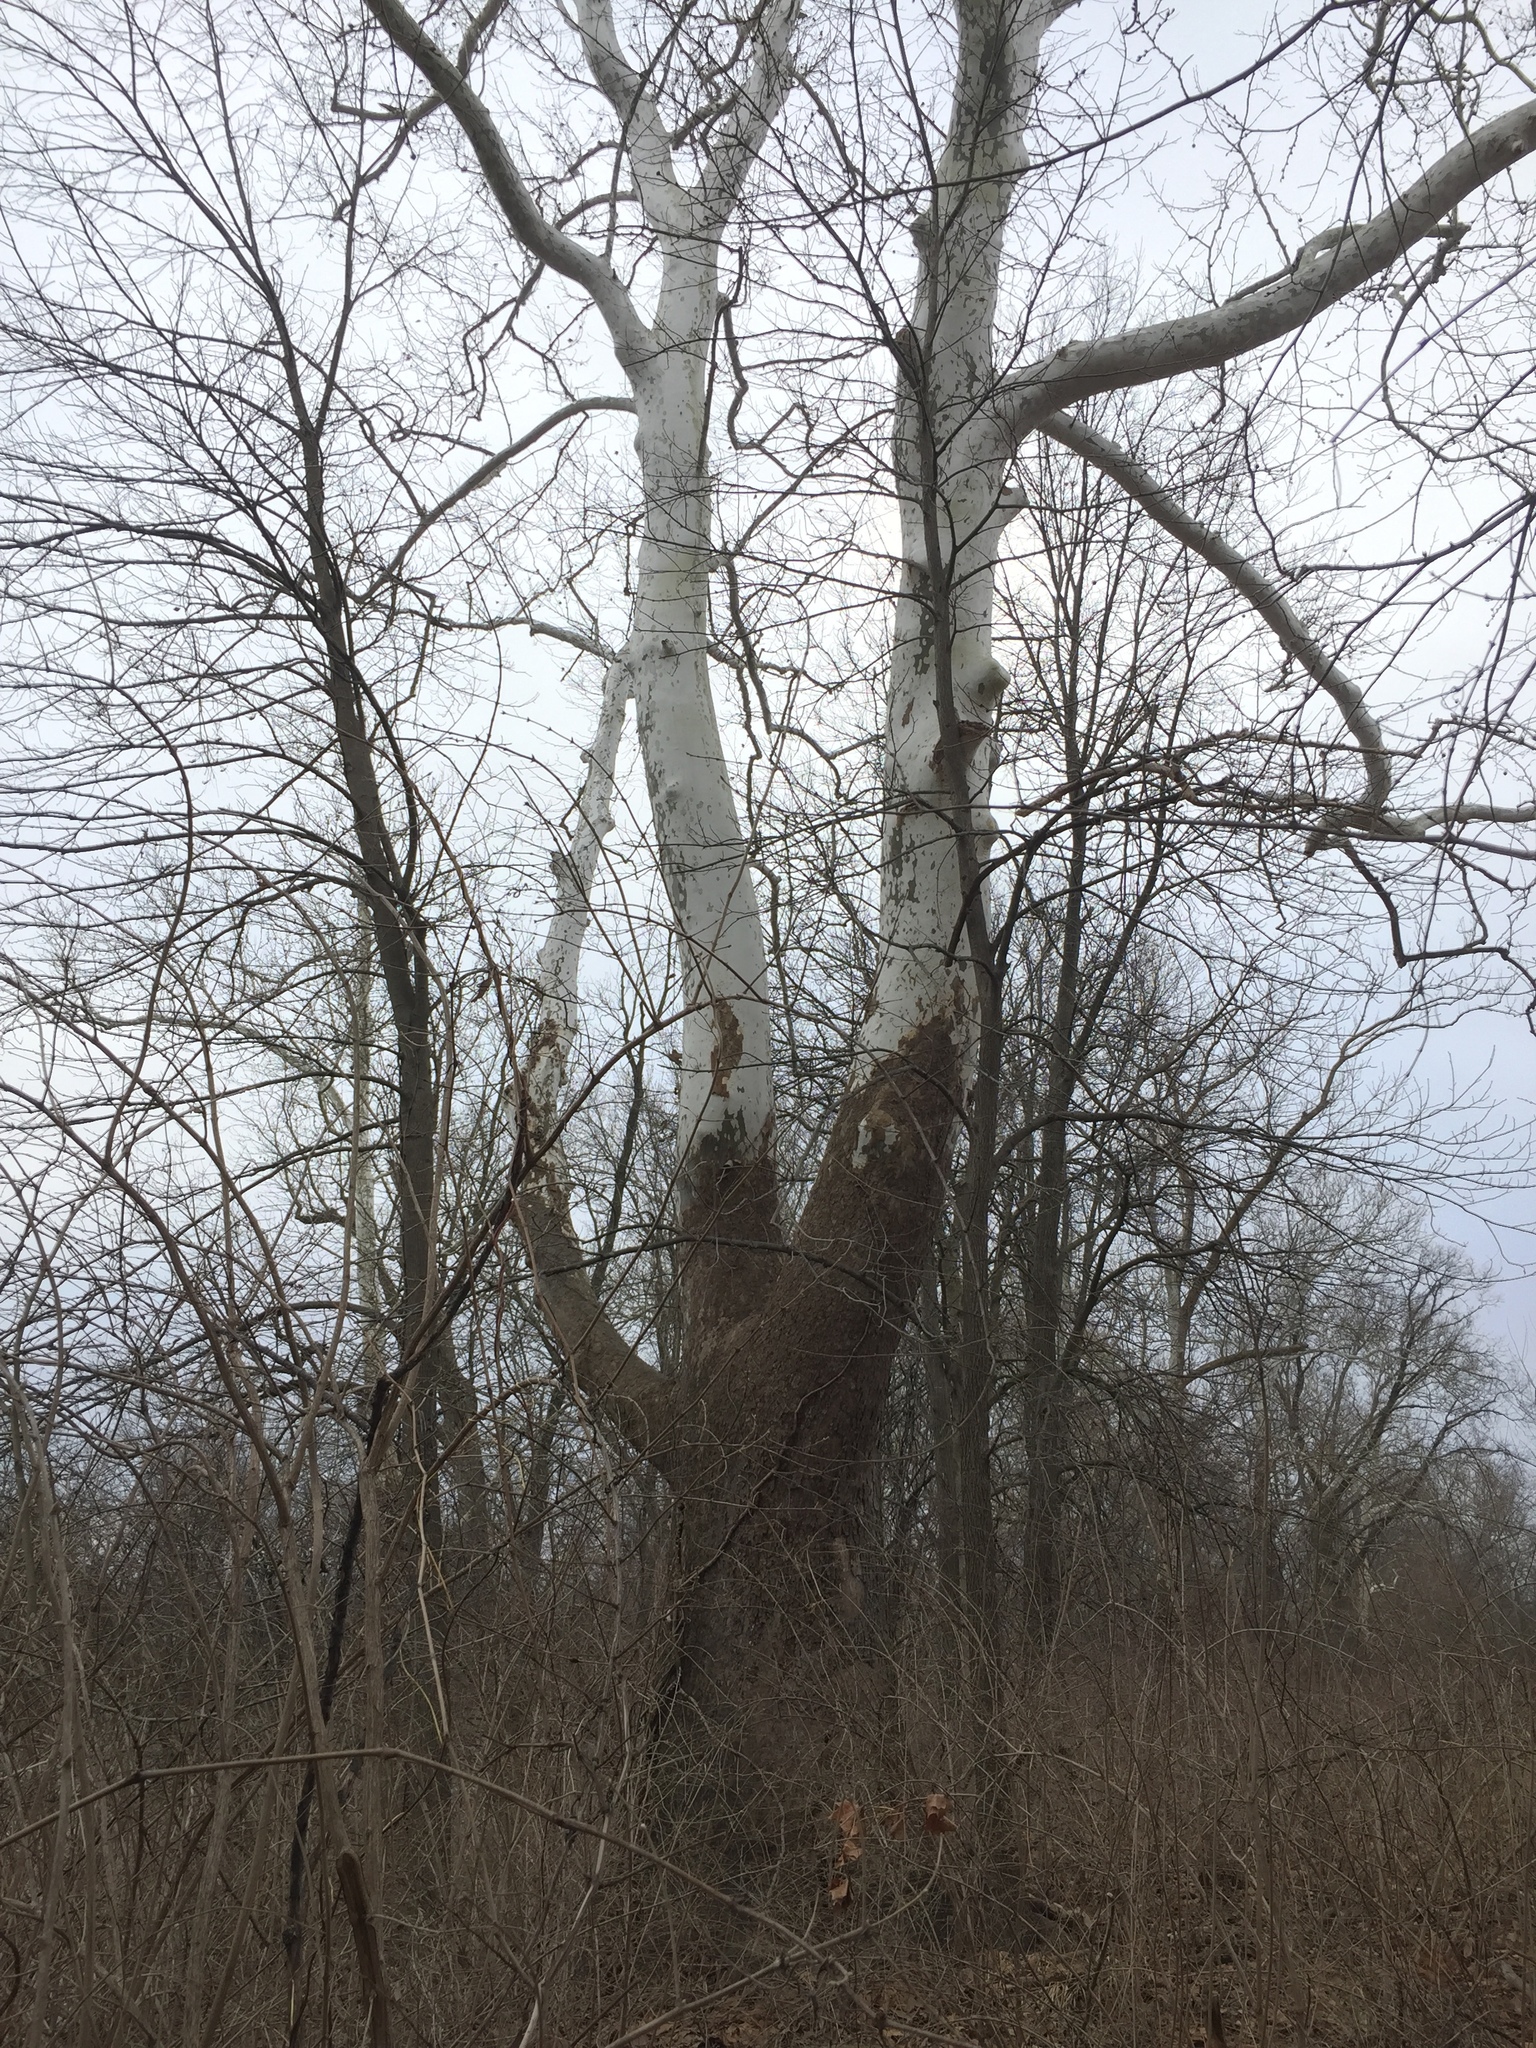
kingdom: Plantae
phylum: Tracheophyta
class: Magnoliopsida
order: Proteales
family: Platanaceae
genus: Platanus
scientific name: Platanus occidentalis
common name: American sycamore
